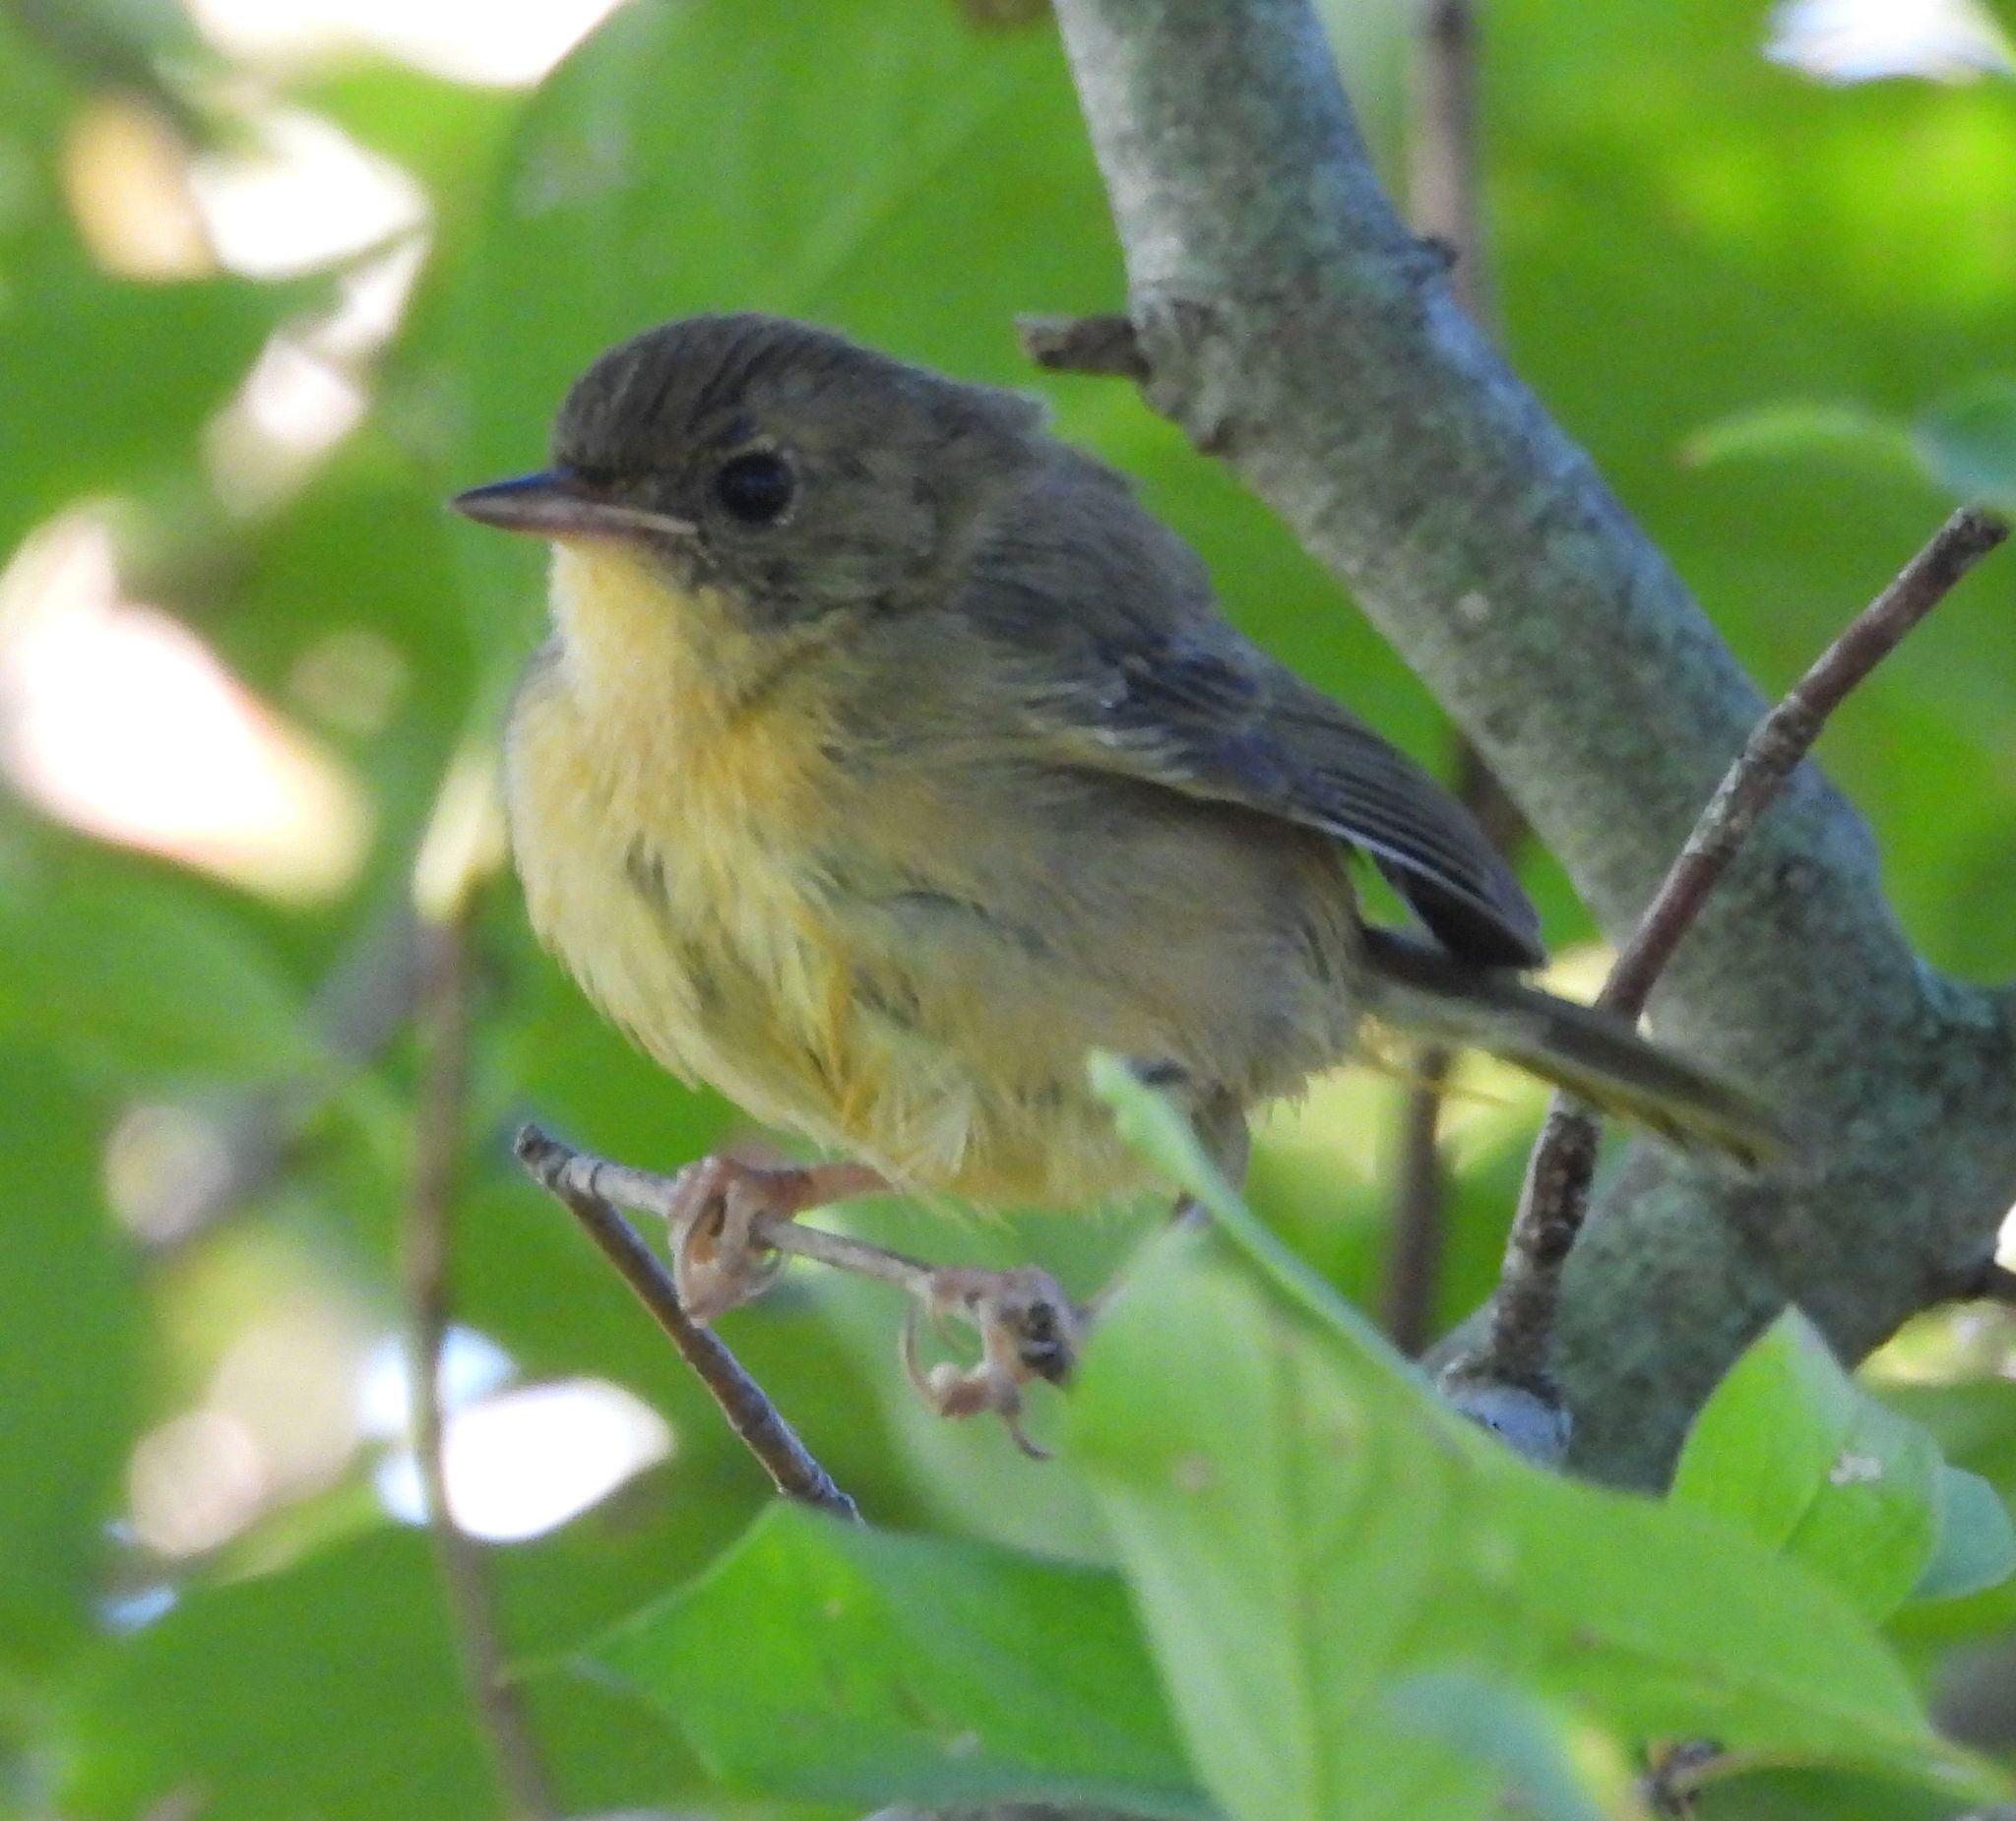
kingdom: Animalia
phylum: Chordata
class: Aves
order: Passeriformes
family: Parulidae
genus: Geothlypis
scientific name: Geothlypis trichas
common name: Common yellowthroat
